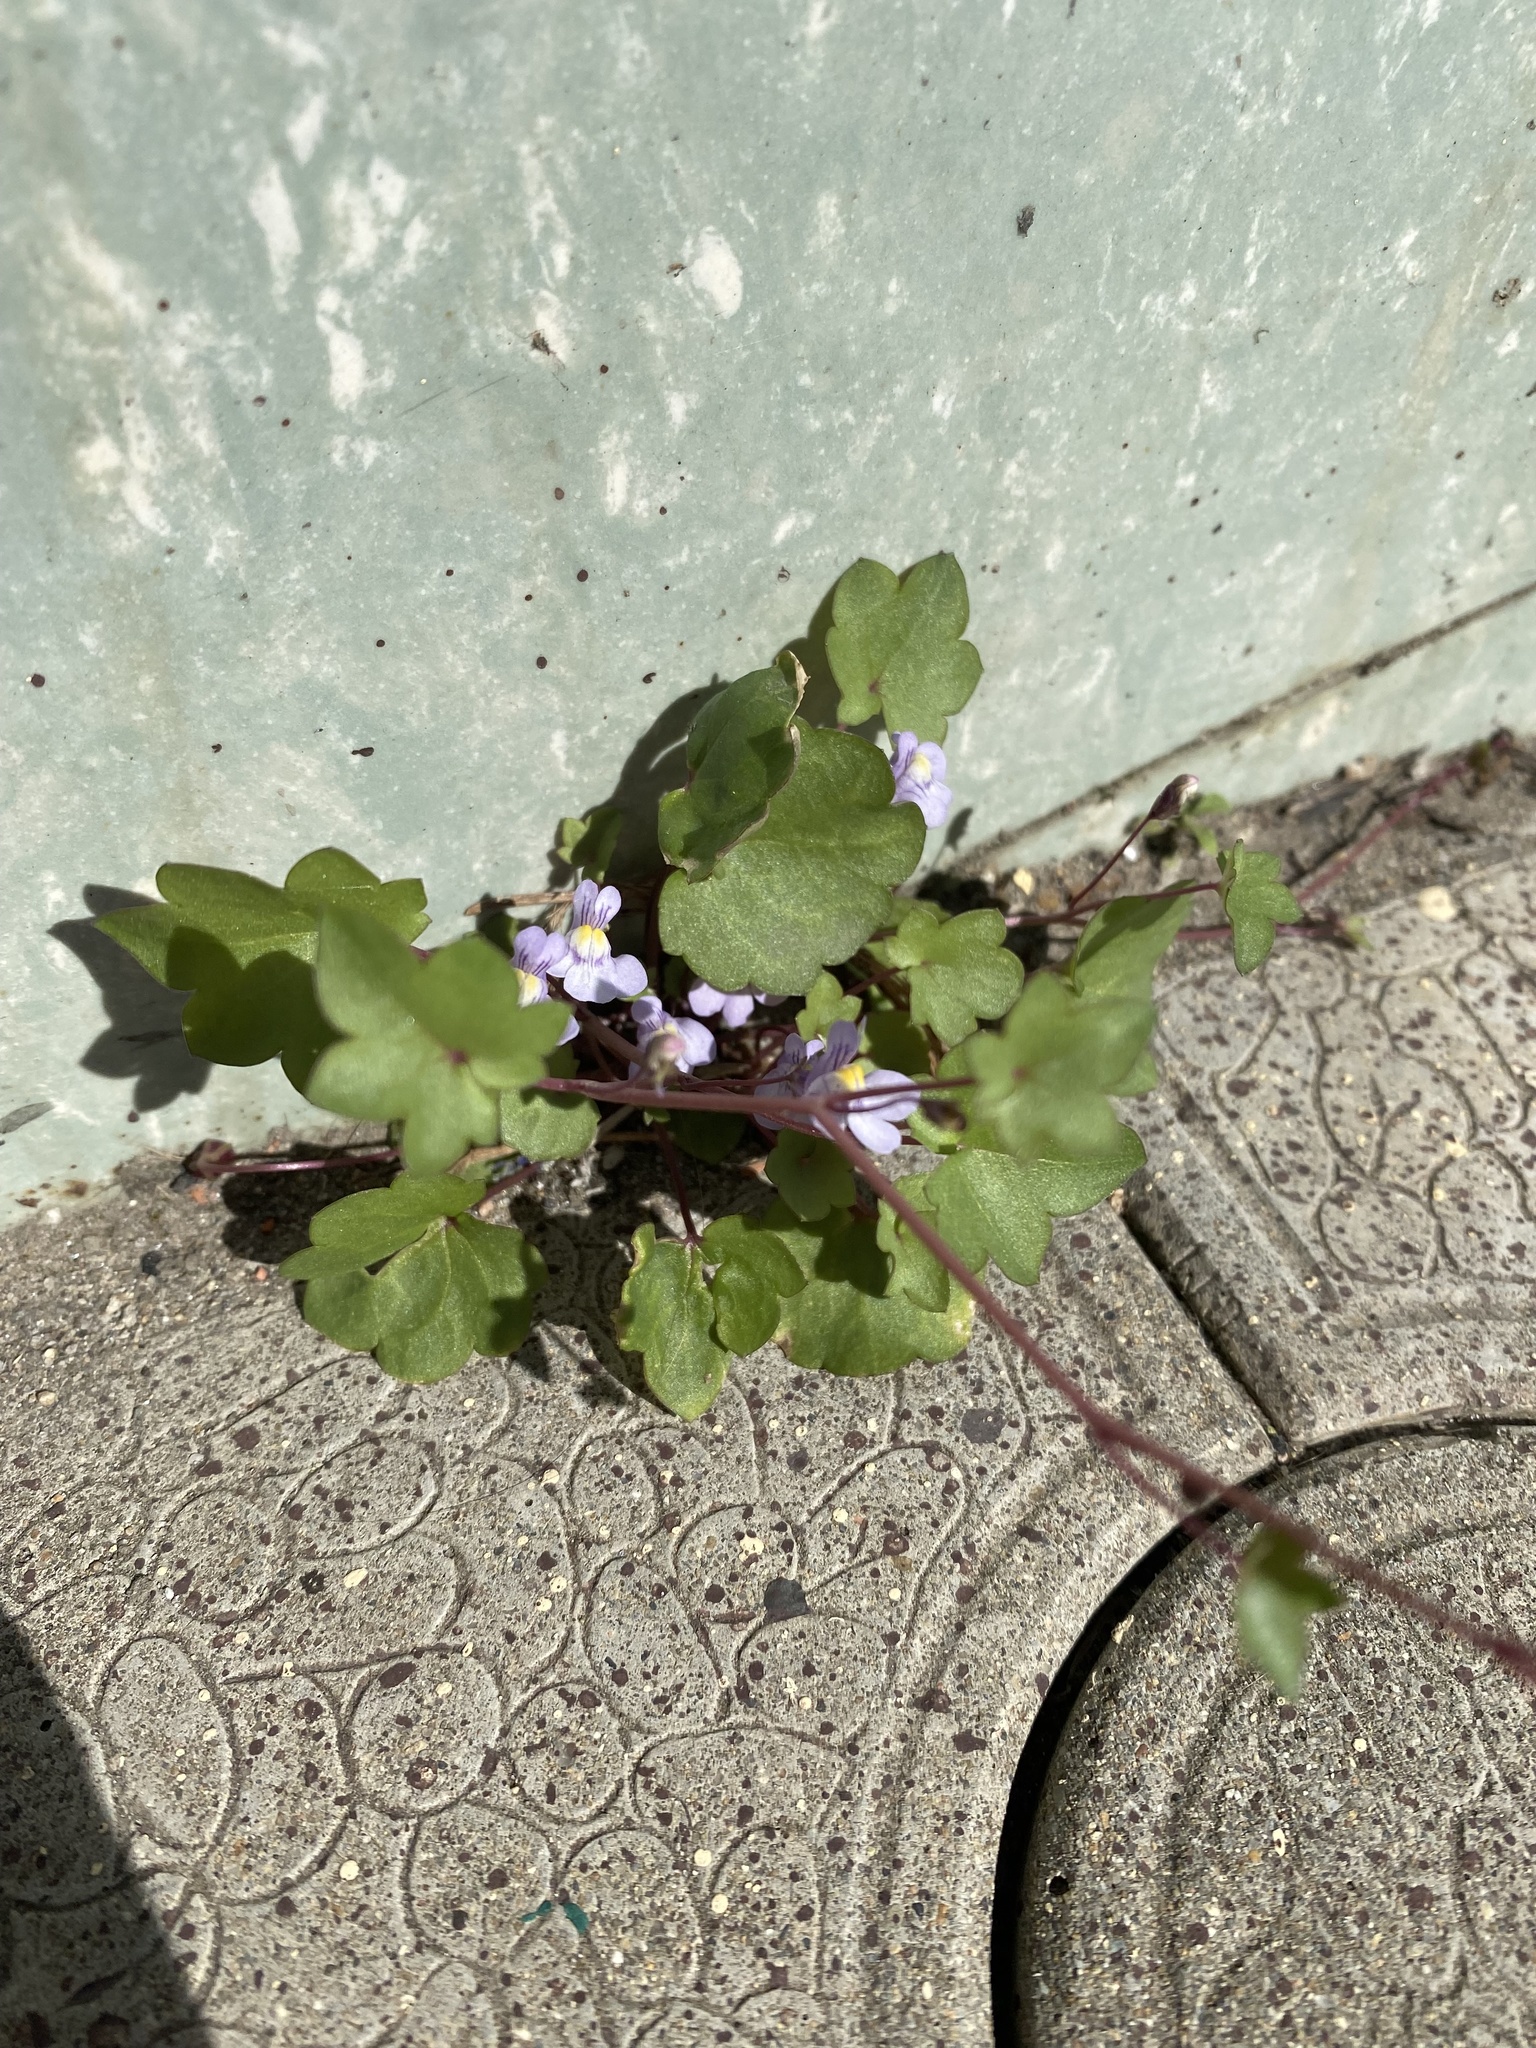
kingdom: Plantae
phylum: Tracheophyta
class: Magnoliopsida
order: Lamiales
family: Plantaginaceae
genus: Cymbalaria
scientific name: Cymbalaria muralis
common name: Ivy-leaved toadflax
